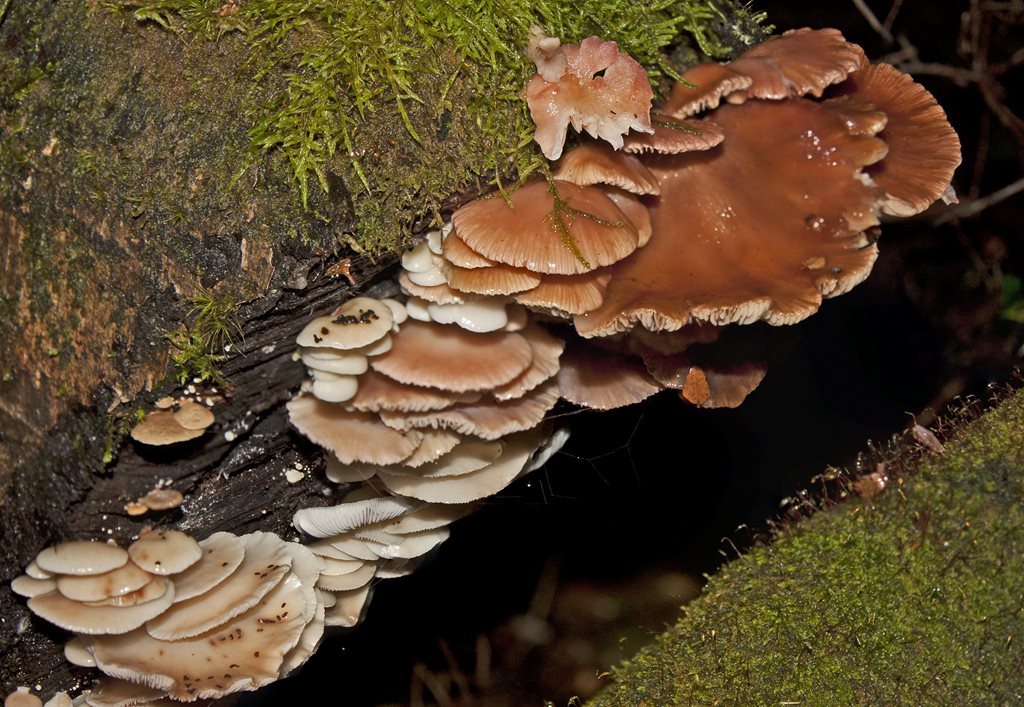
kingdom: Fungi
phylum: Basidiomycota
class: Agaricomycetes
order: Agaricales
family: Mycenaceae
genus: Panellus
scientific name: Panellus longinquus
